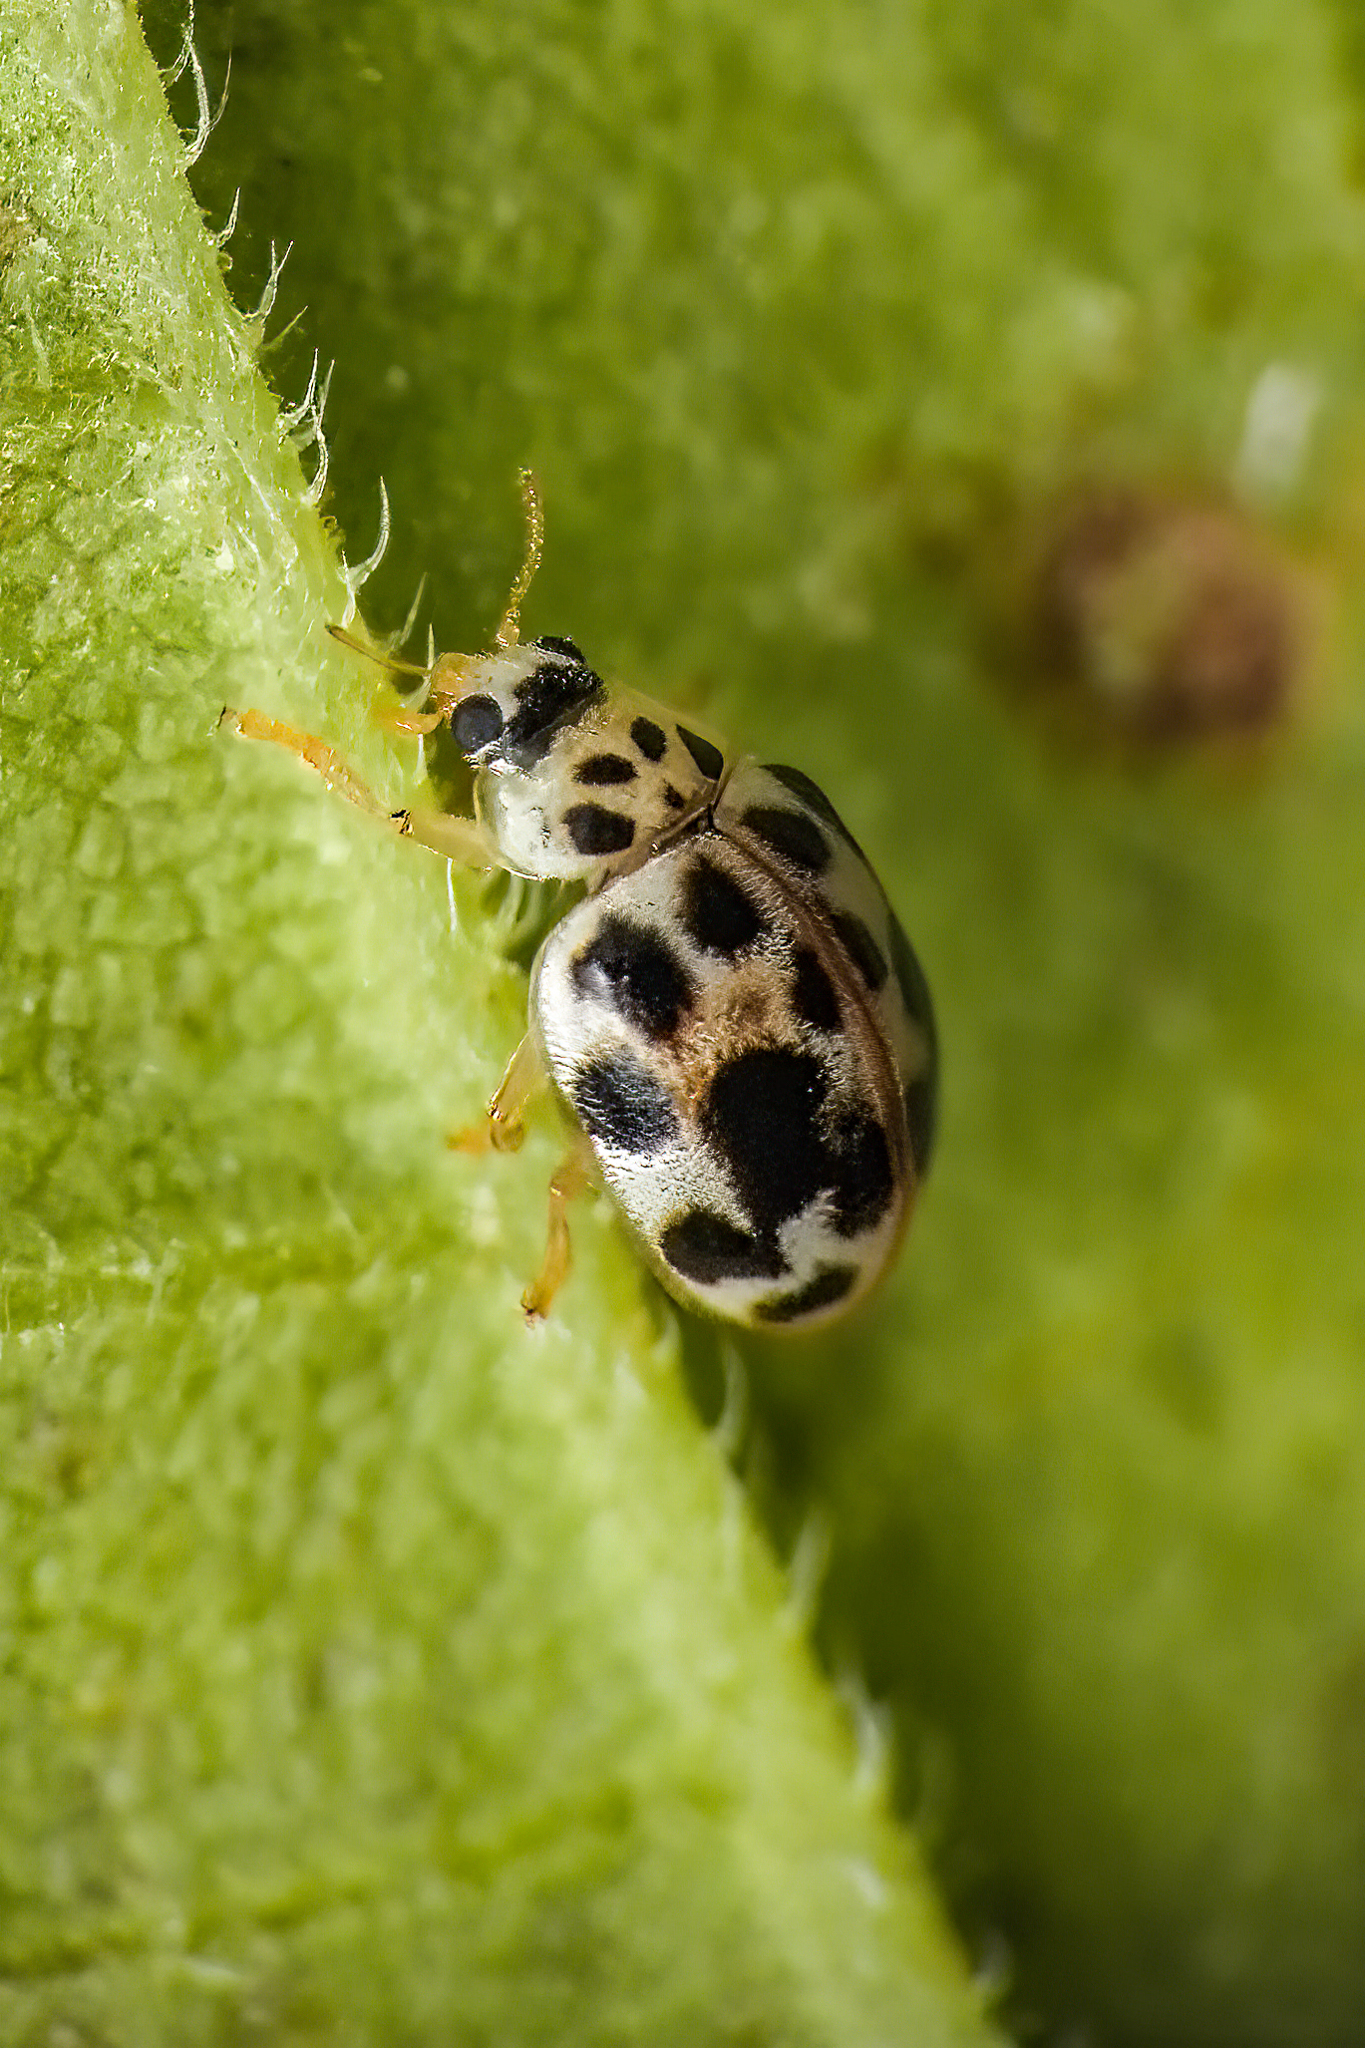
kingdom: Animalia
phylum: Arthropoda
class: Insecta
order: Coleoptera
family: Coccinellidae
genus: Psyllobora
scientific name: Psyllobora vigintimaculata
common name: Ladybird beetle
